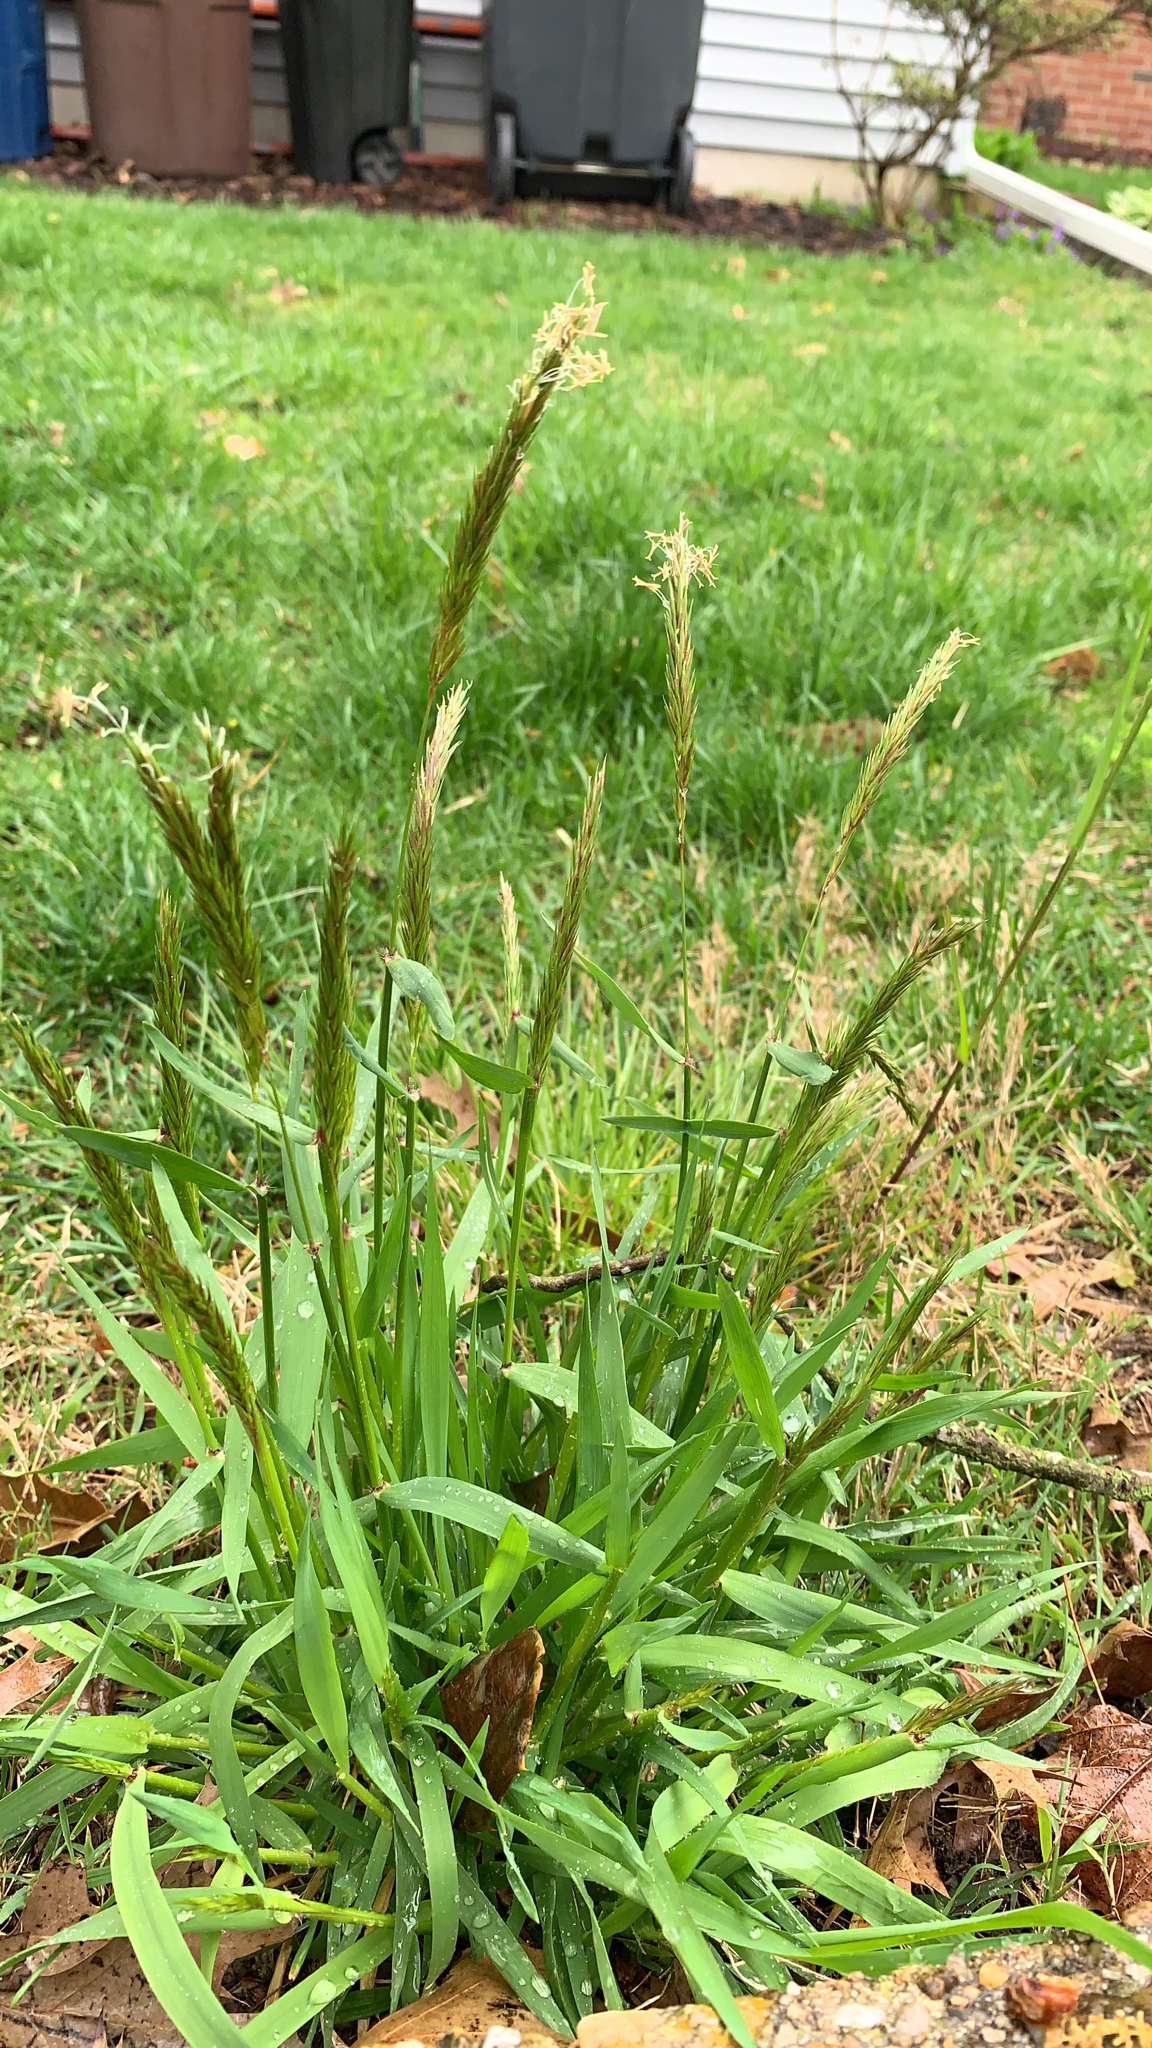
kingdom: Plantae
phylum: Tracheophyta
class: Liliopsida
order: Poales
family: Poaceae
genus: Anthoxanthum
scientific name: Anthoxanthum odoratum
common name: Sweet vernalgrass
